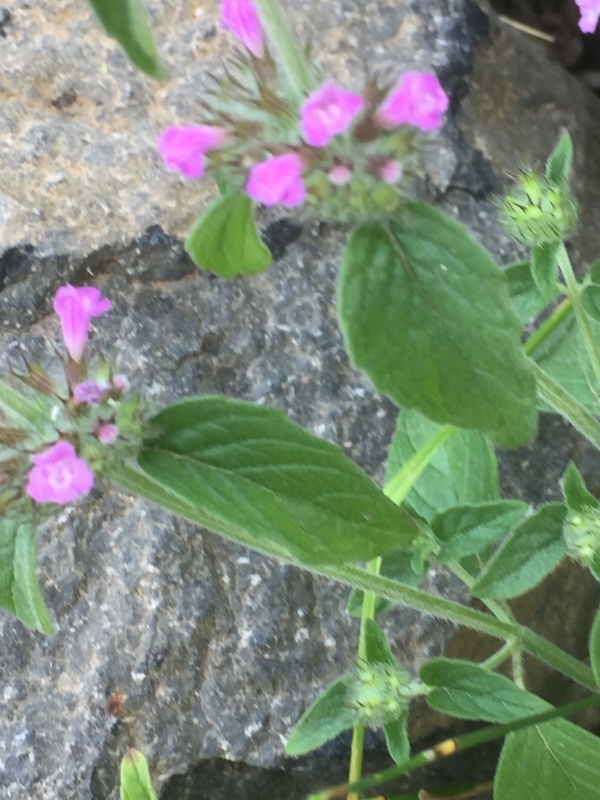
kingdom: Plantae
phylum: Tracheophyta
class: Magnoliopsida
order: Lamiales
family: Lamiaceae
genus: Clinopodium
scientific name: Clinopodium vulgare
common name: Wild basil
